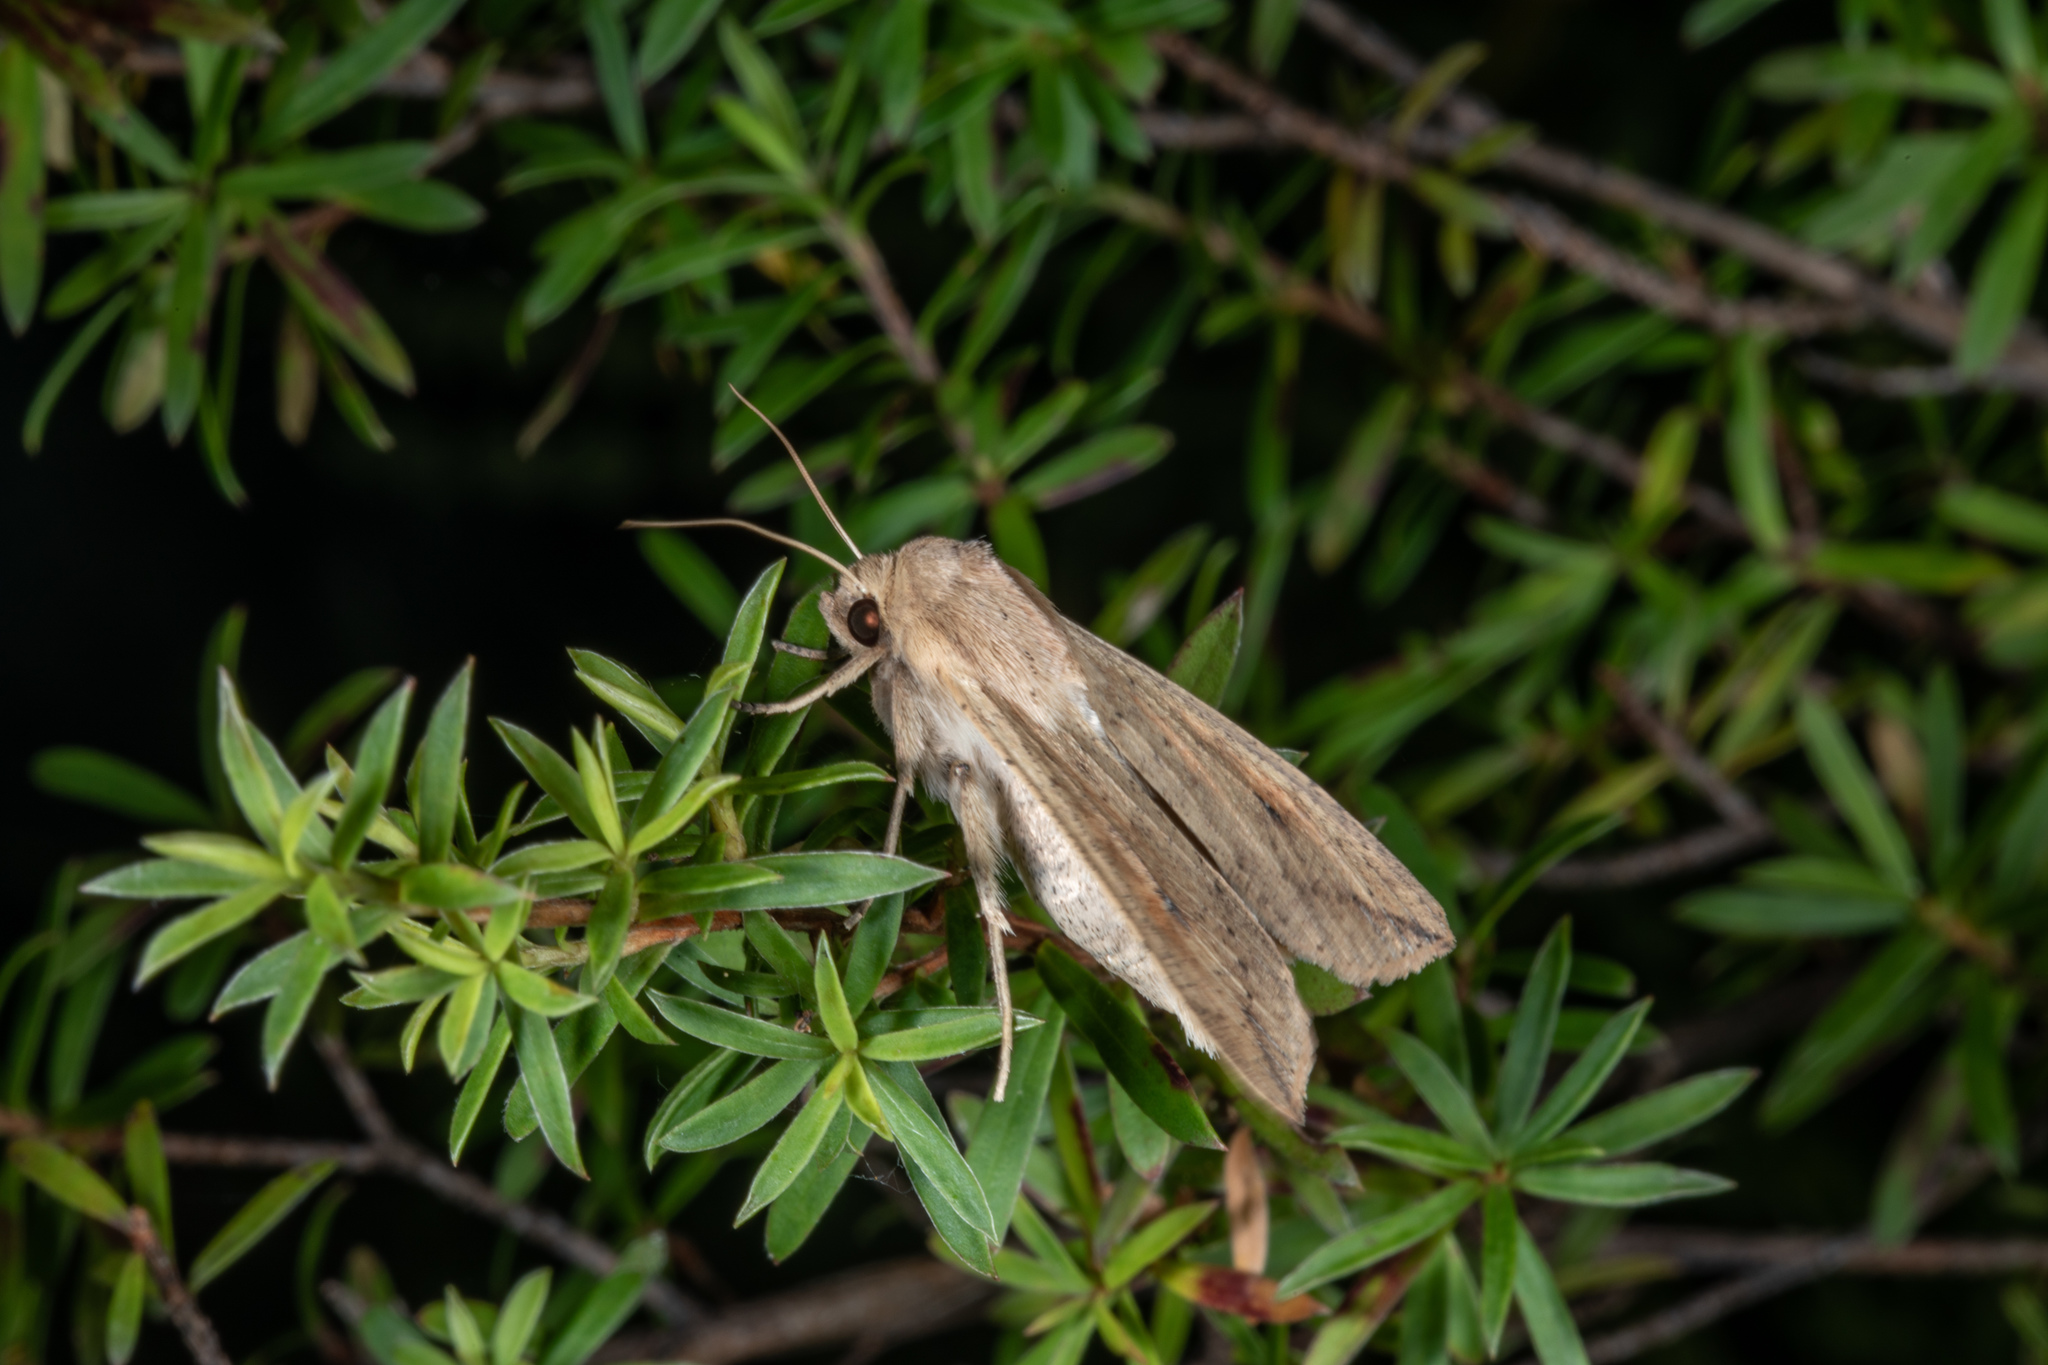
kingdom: Animalia
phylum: Arthropoda
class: Insecta
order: Lepidoptera
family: Noctuidae
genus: Mythimna
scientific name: Mythimna separata
